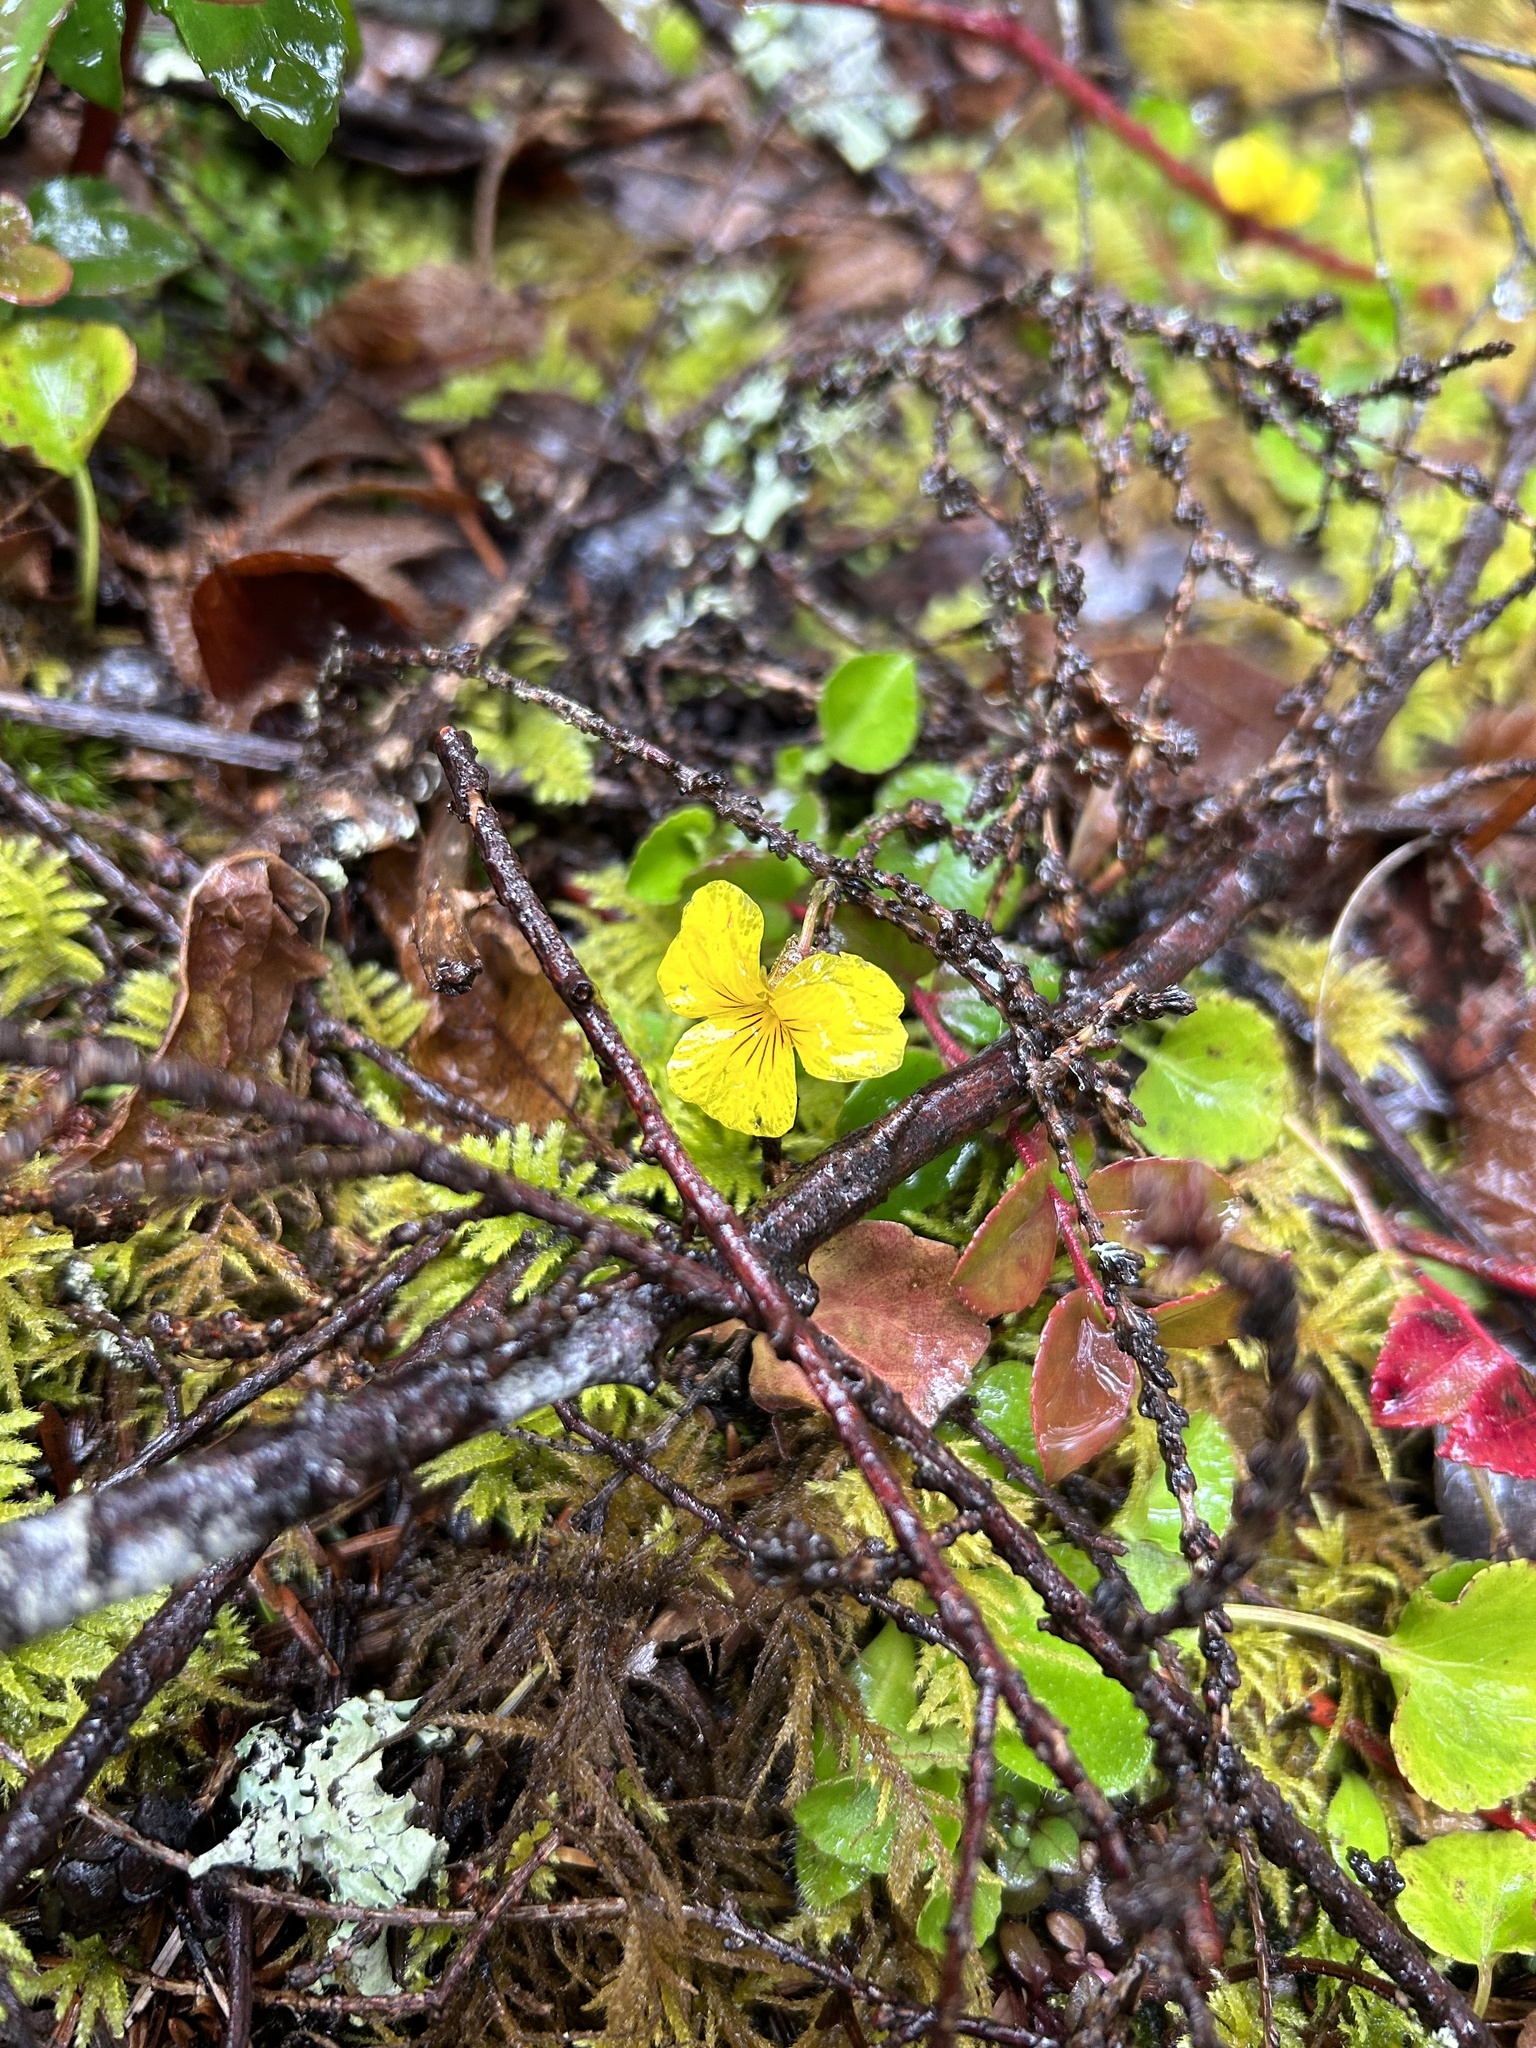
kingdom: Plantae
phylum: Tracheophyta
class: Magnoliopsida
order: Malpighiales
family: Violaceae
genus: Viola
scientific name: Viola sempervirens
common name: Evergreen violet
